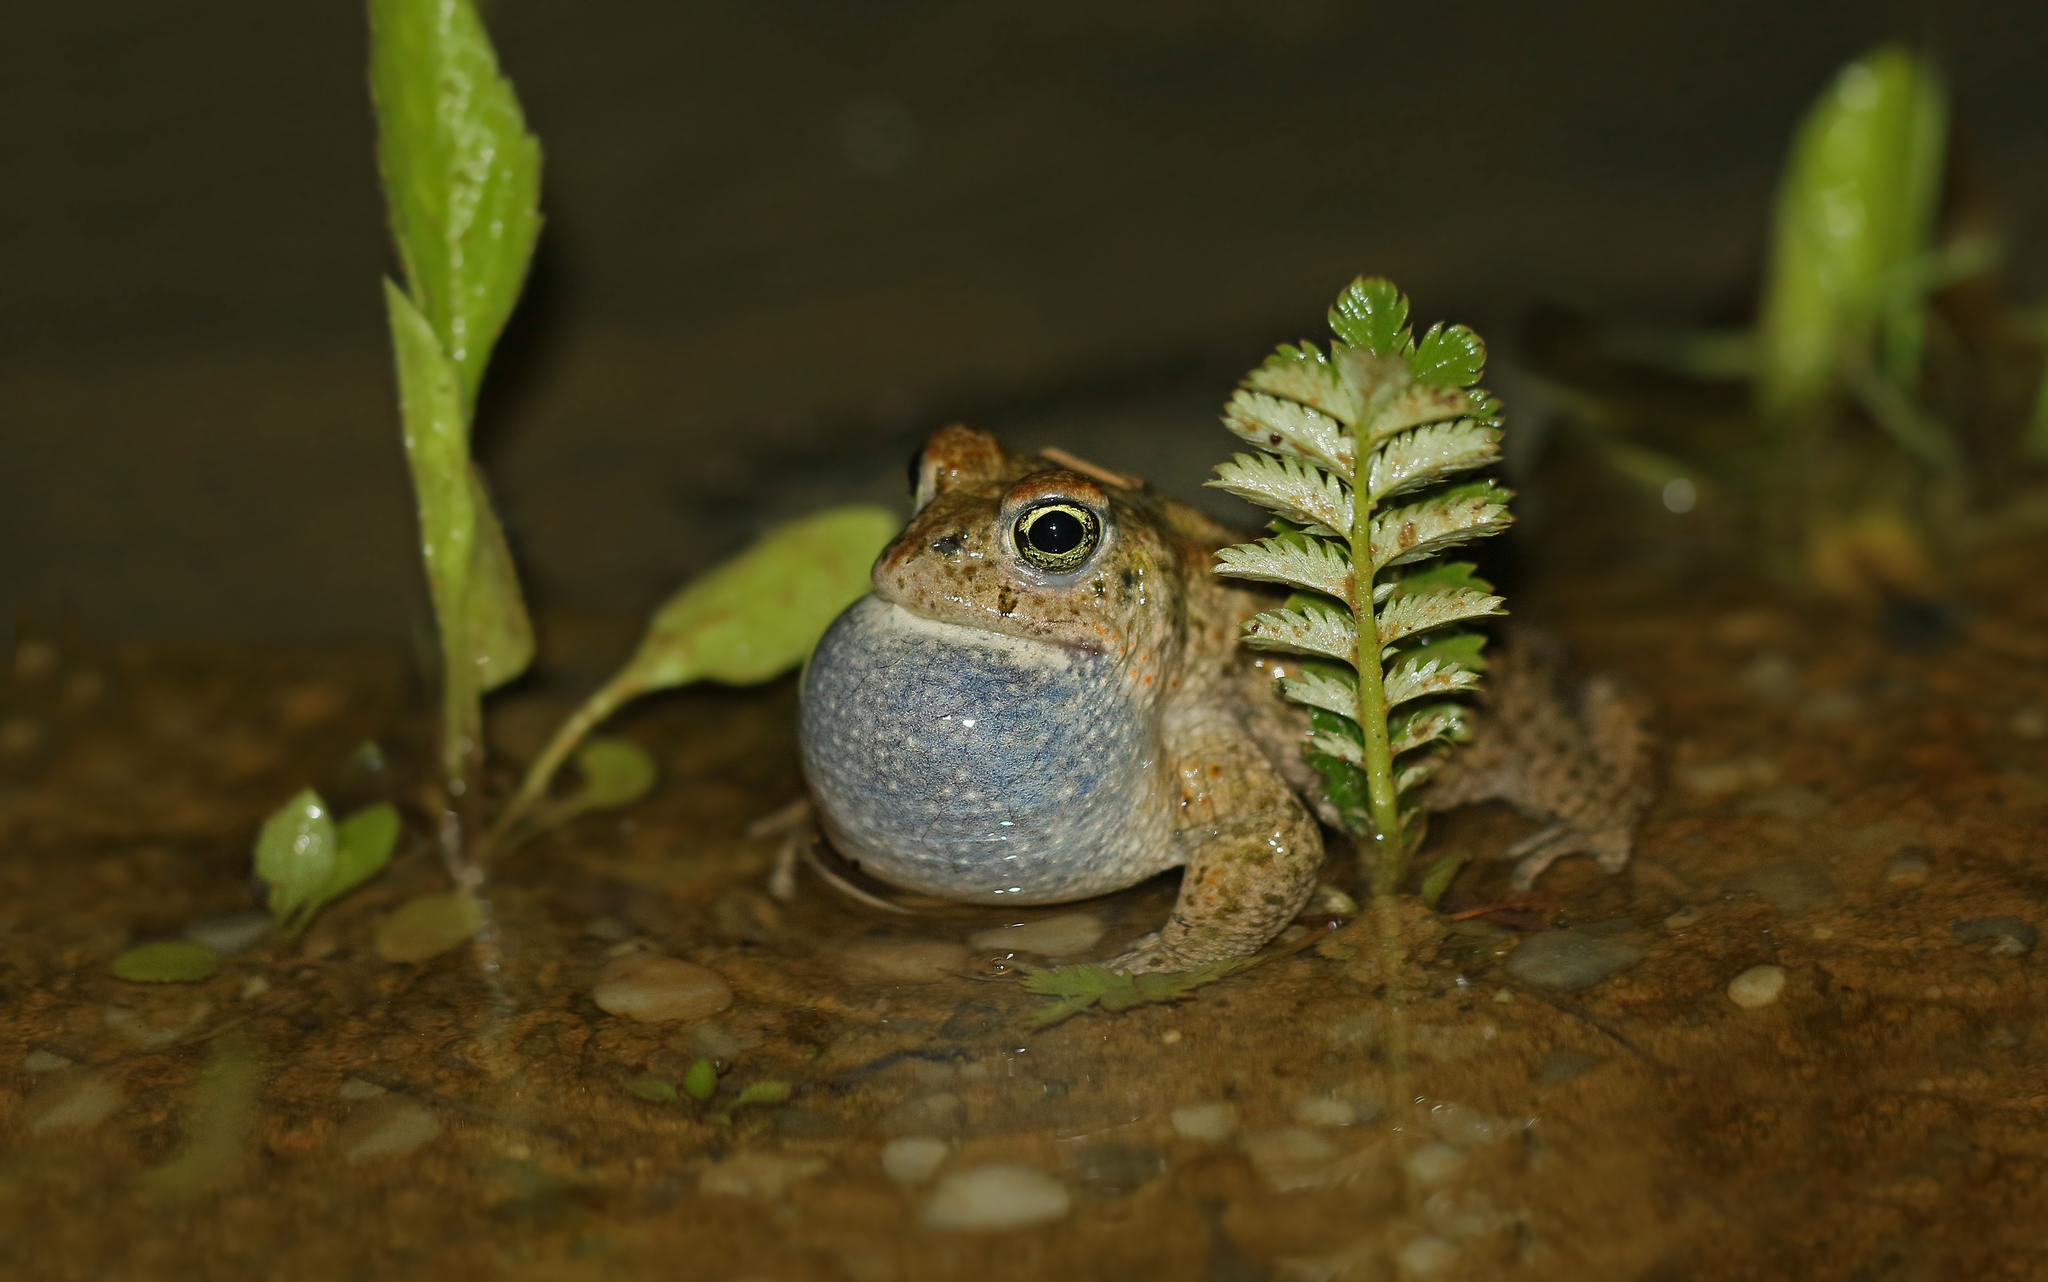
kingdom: Animalia
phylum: Chordata
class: Amphibia
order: Anura
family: Bufonidae
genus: Epidalea
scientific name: Epidalea calamita
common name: Natterjack toad
